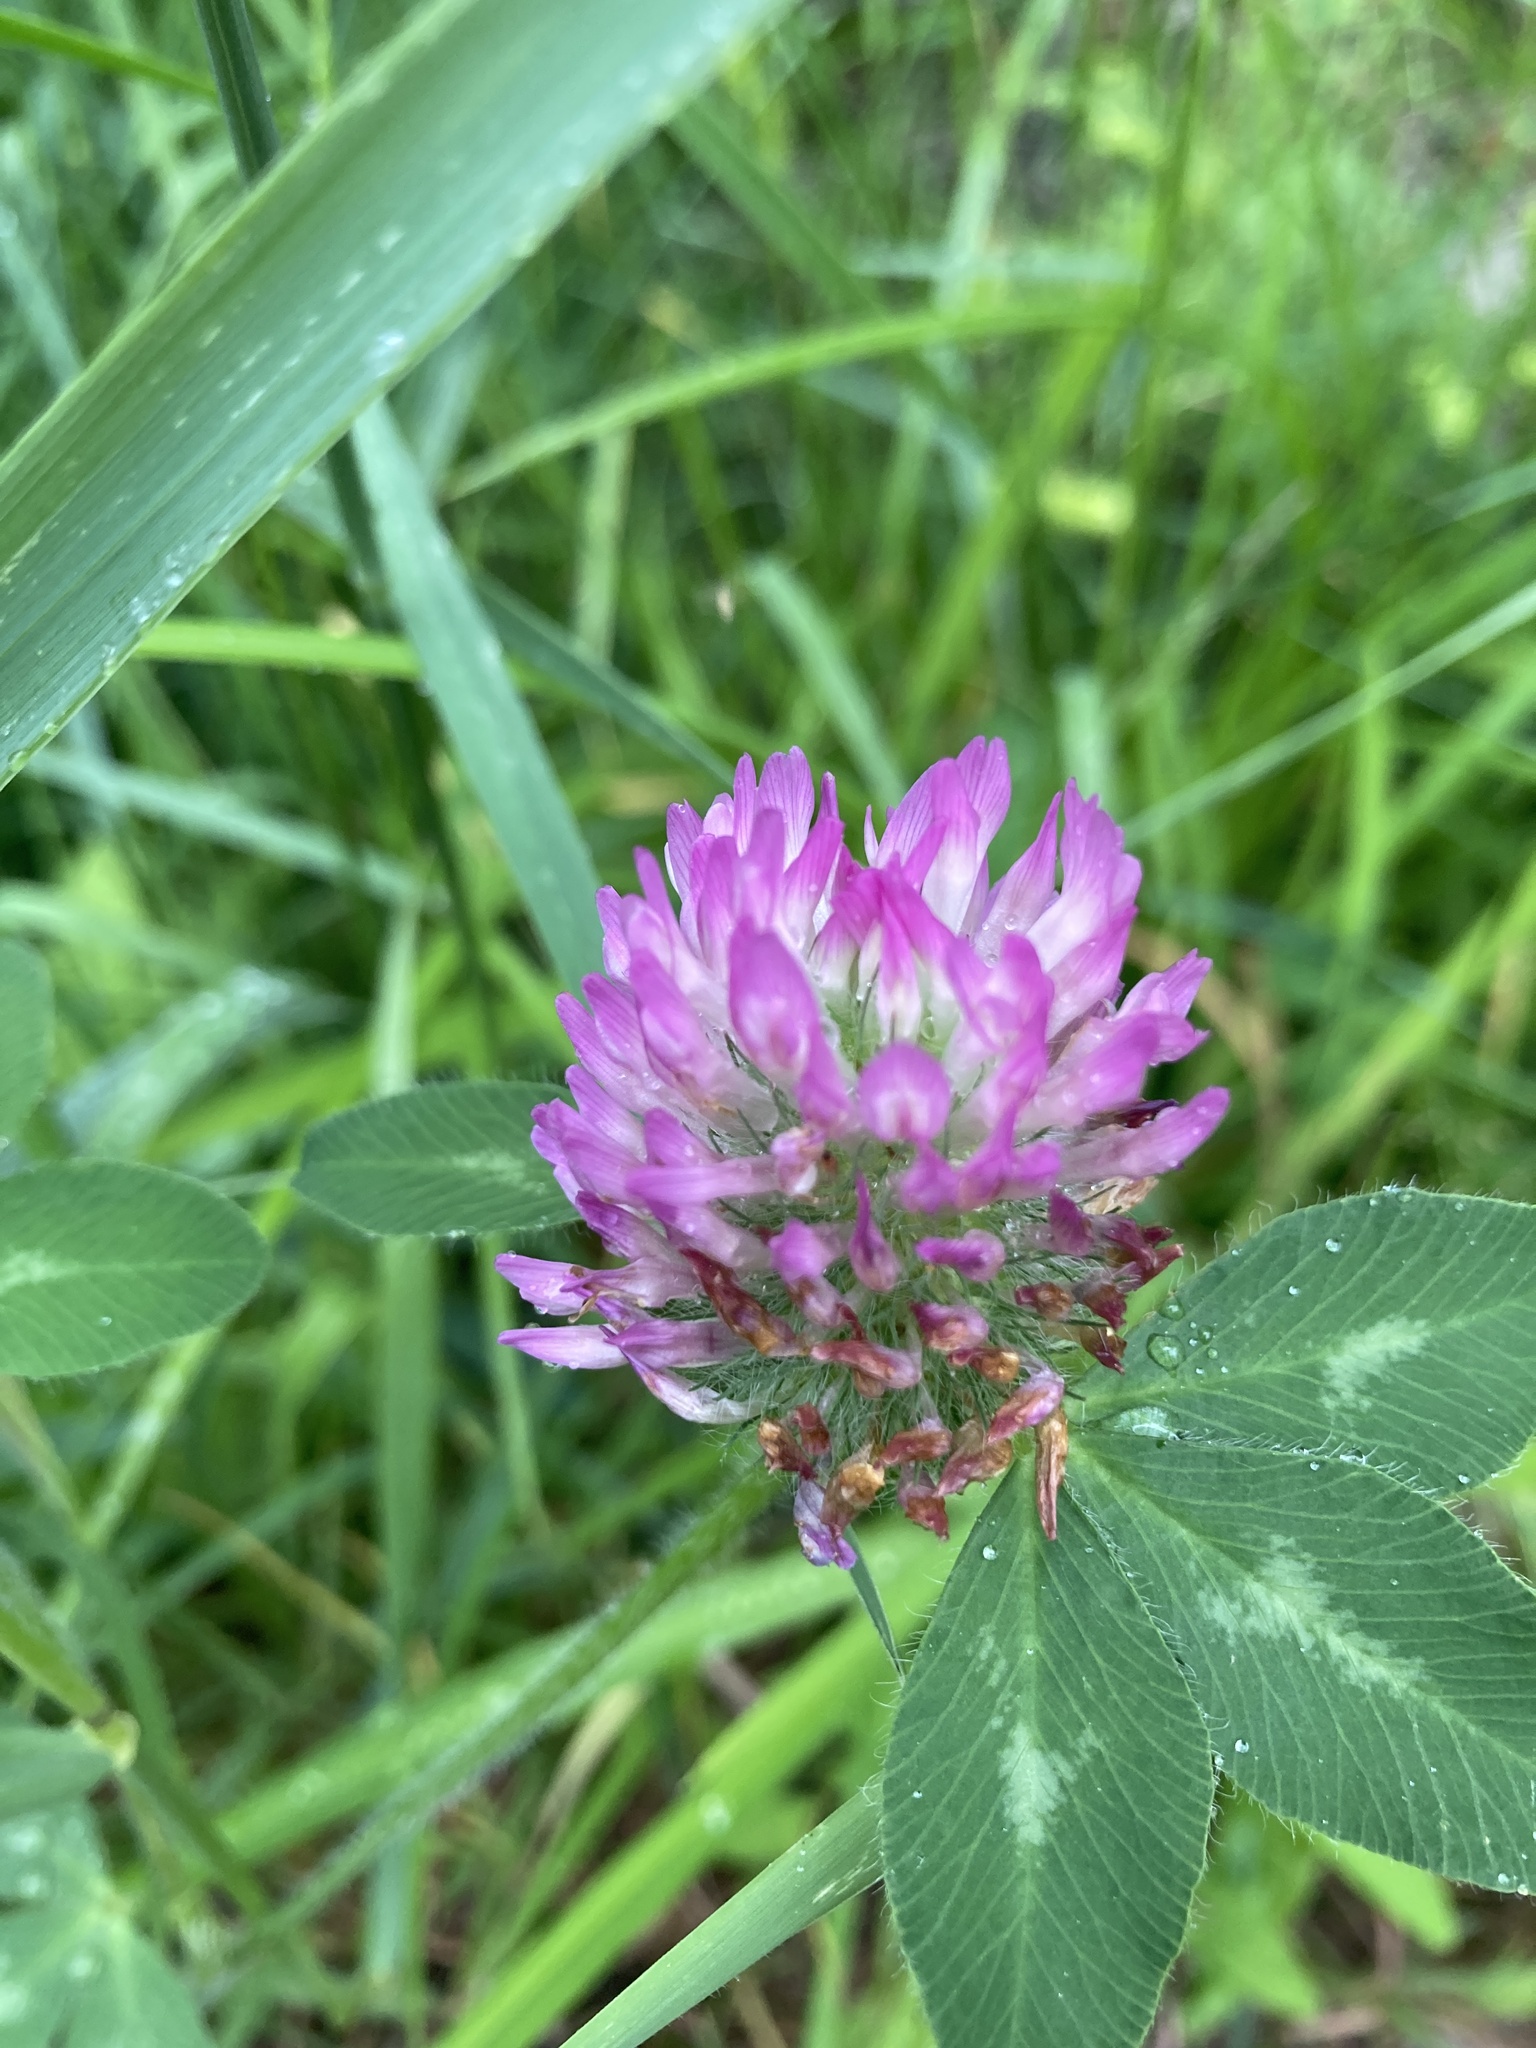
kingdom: Plantae
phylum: Tracheophyta
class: Magnoliopsida
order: Fabales
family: Fabaceae
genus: Trifolium
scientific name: Trifolium pratense
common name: Red clover
